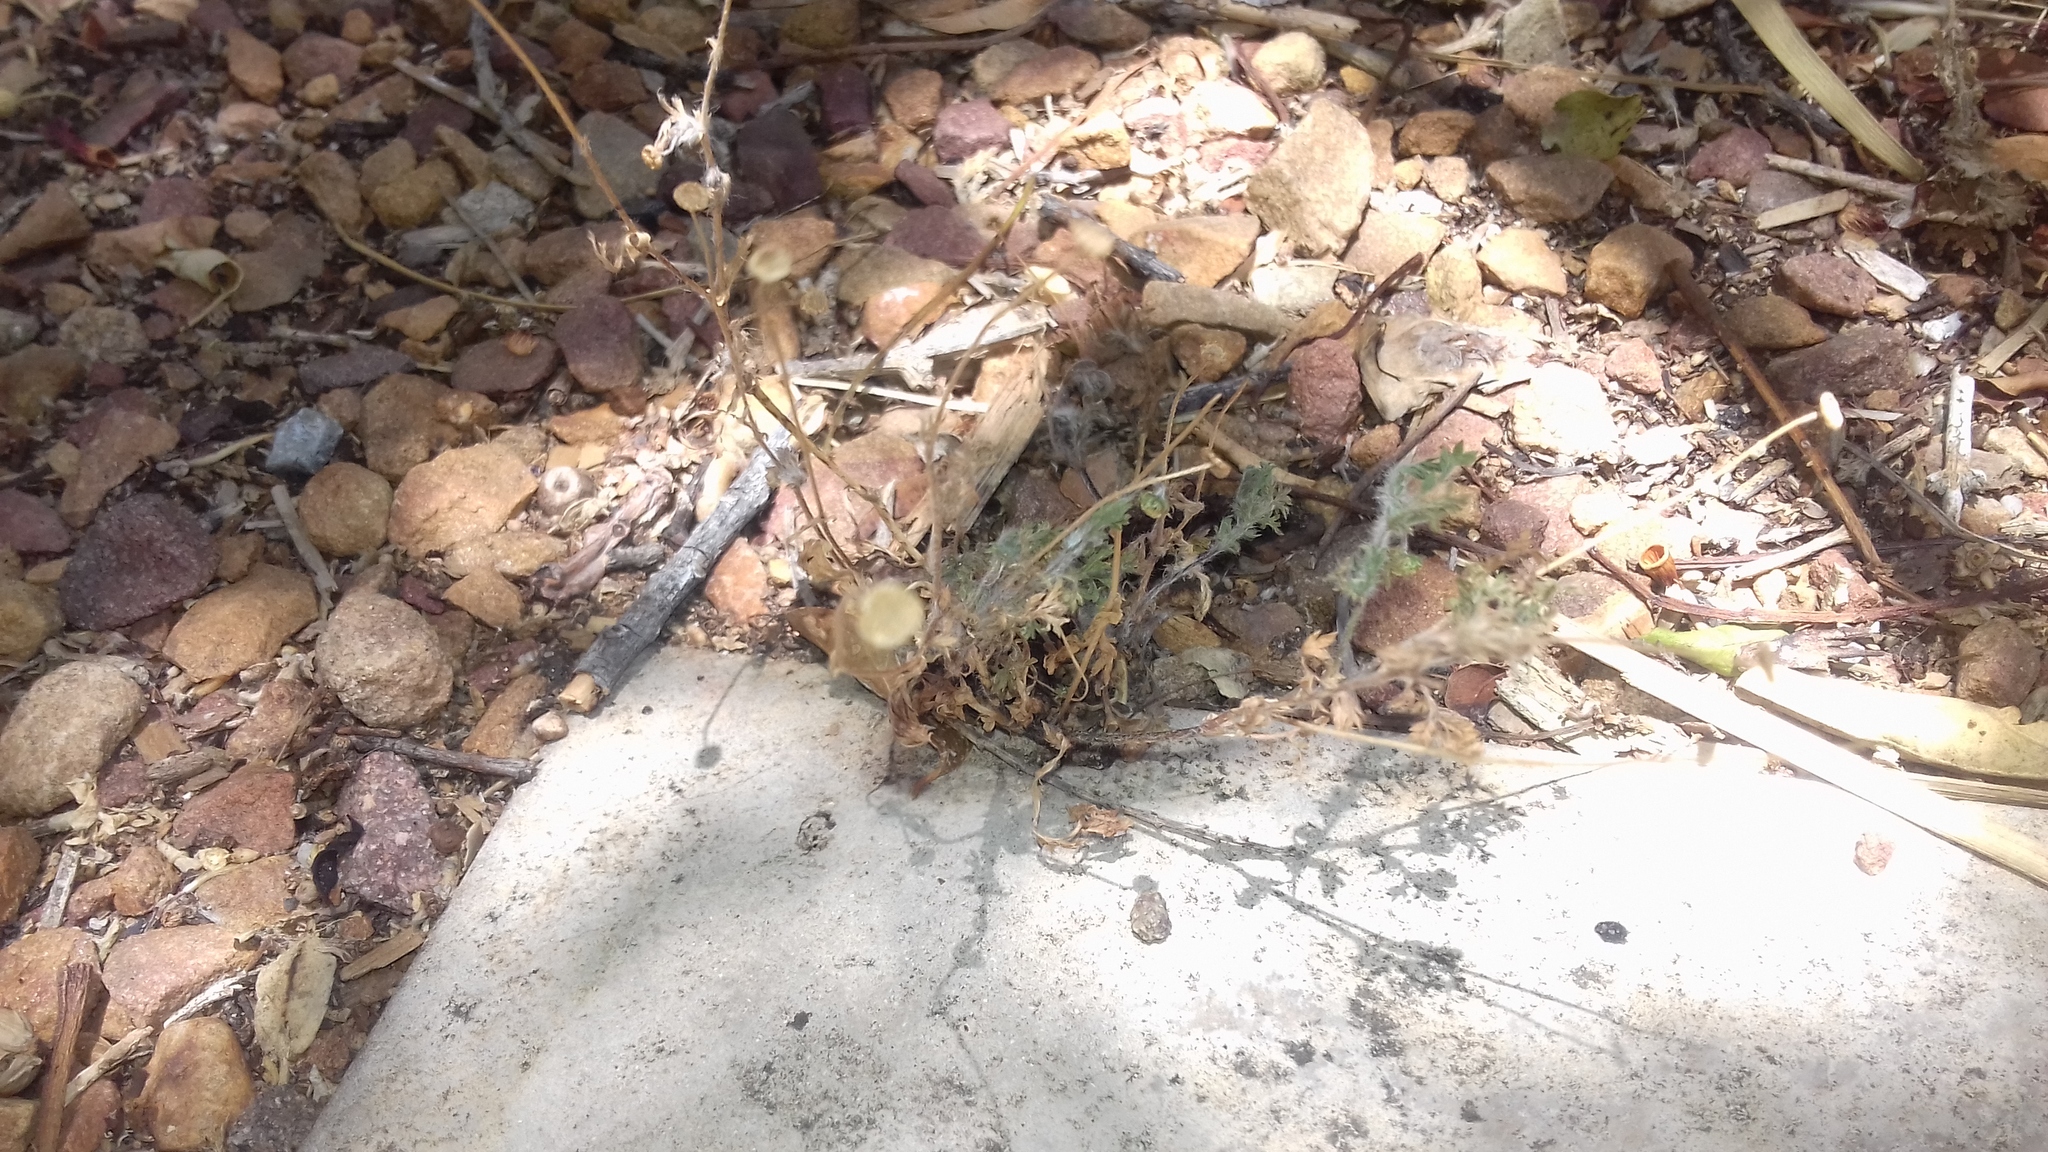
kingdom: Plantae
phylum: Tracheophyta
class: Magnoliopsida
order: Asterales
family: Asteraceae
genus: Cotula
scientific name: Cotula australis
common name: Australian waterbuttons
